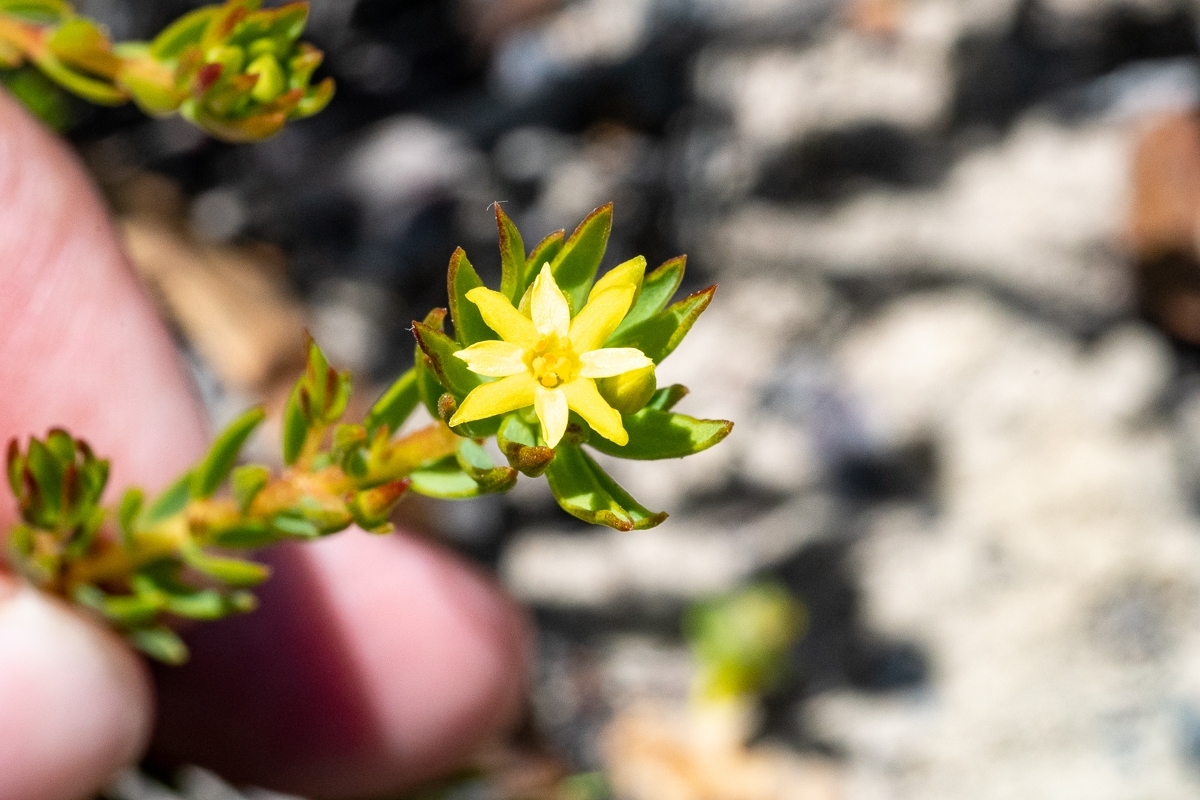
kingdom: Plantae
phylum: Tracheophyta
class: Magnoliopsida
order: Malvales
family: Thymelaeaceae
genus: Gnidia
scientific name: Gnidia juniperifolia
